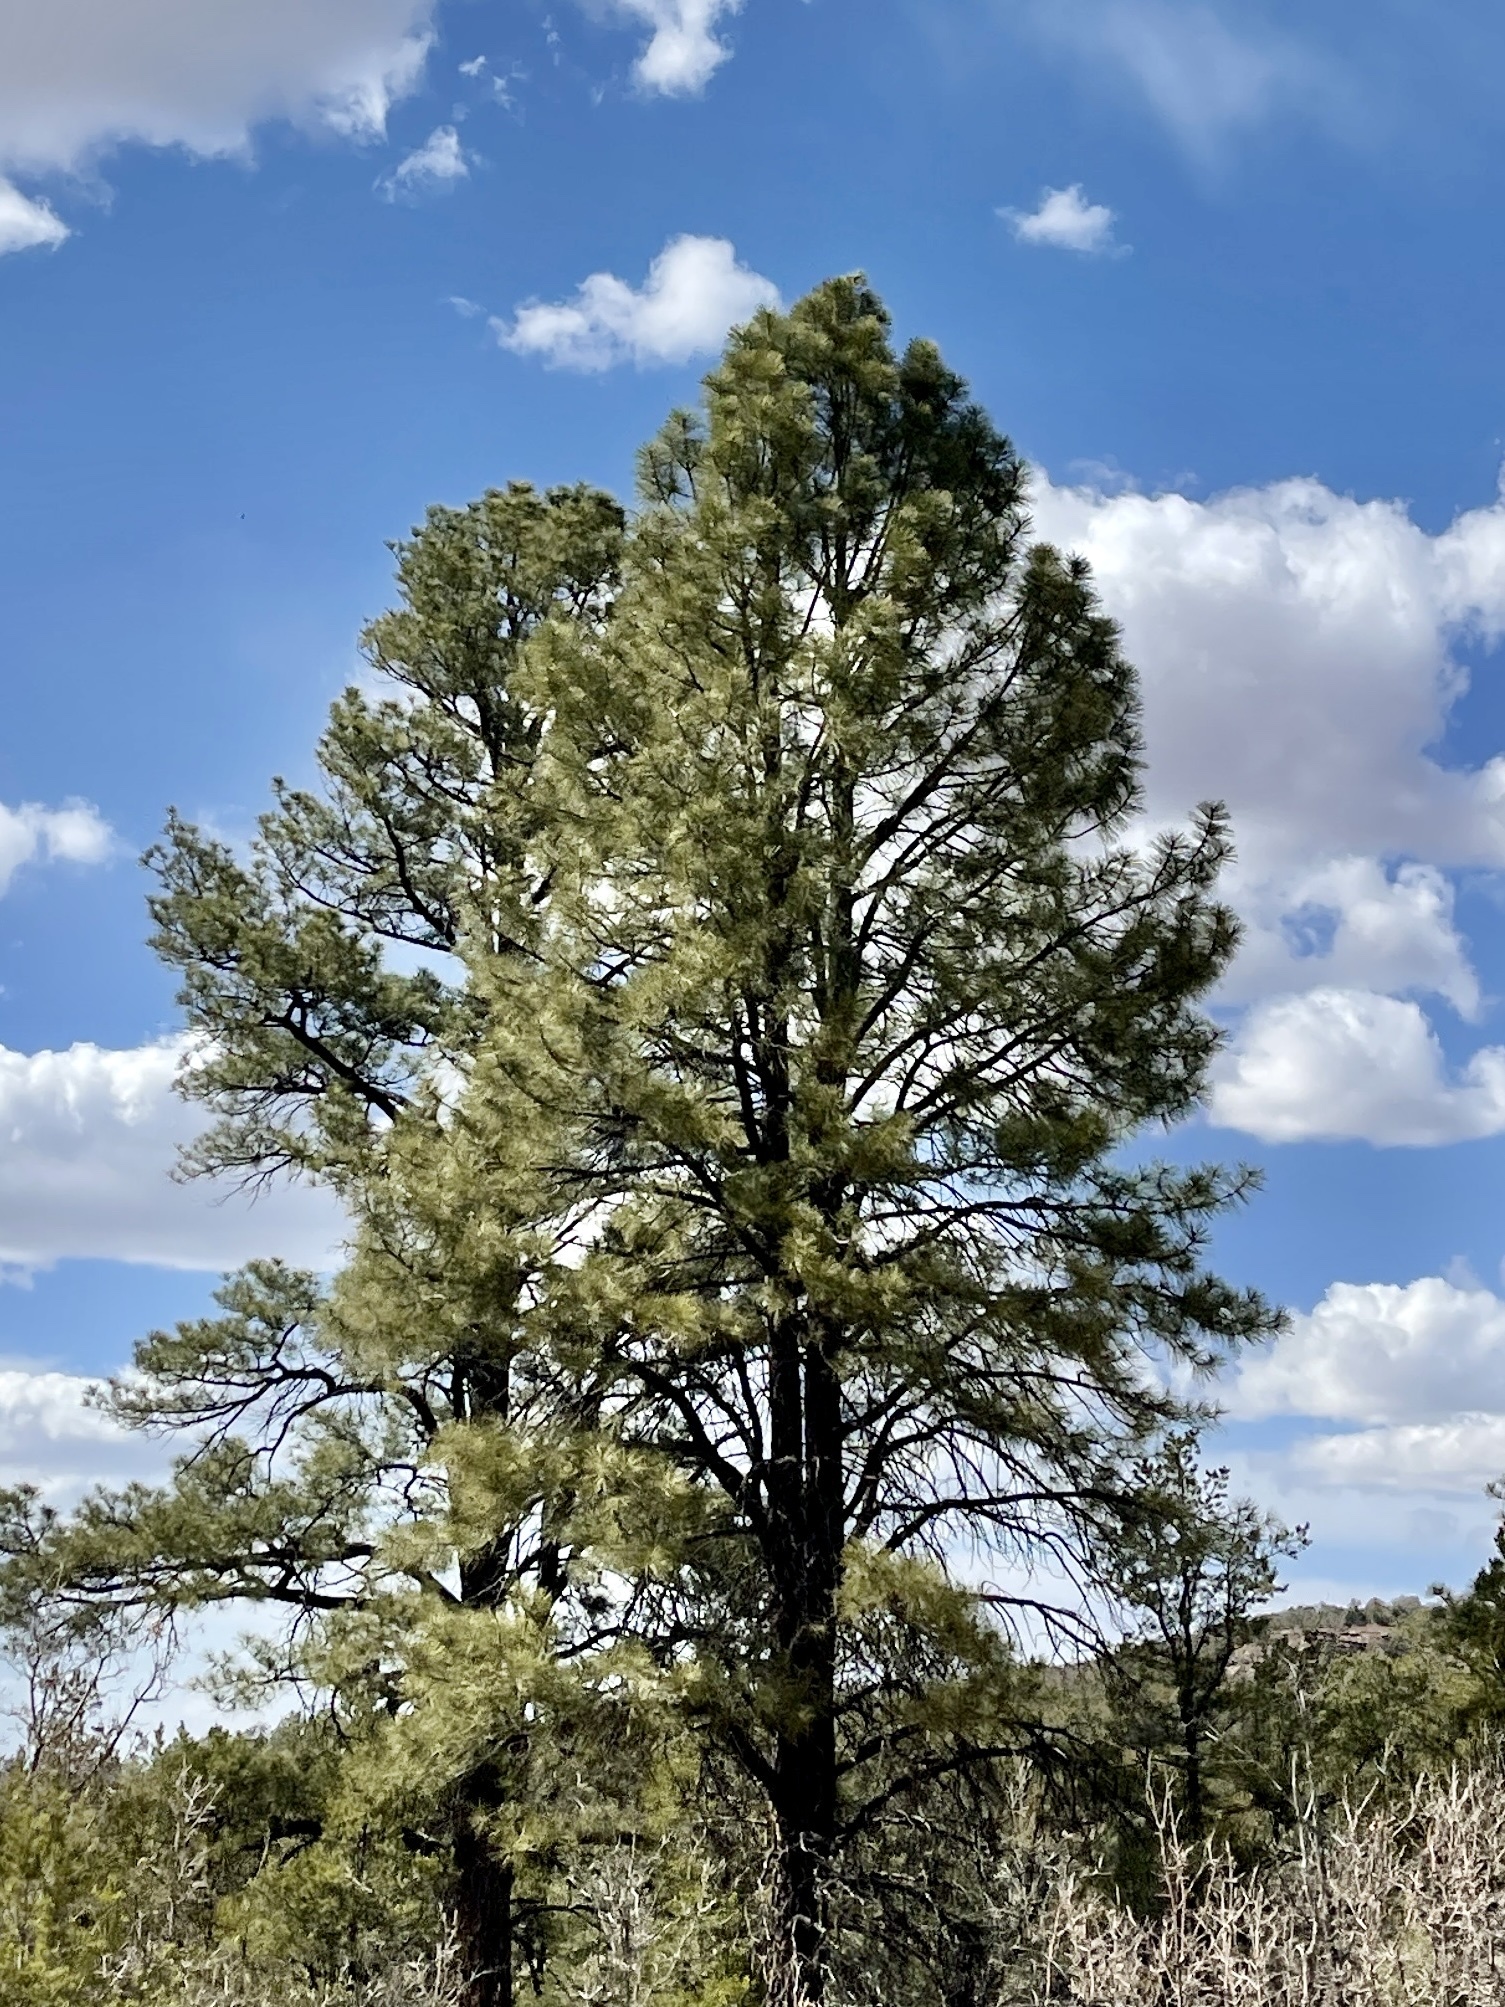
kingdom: Plantae
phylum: Tracheophyta
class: Pinopsida
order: Pinales
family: Pinaceae
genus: Pinus
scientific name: Pinus ponderosa
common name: Western yellow-pine
